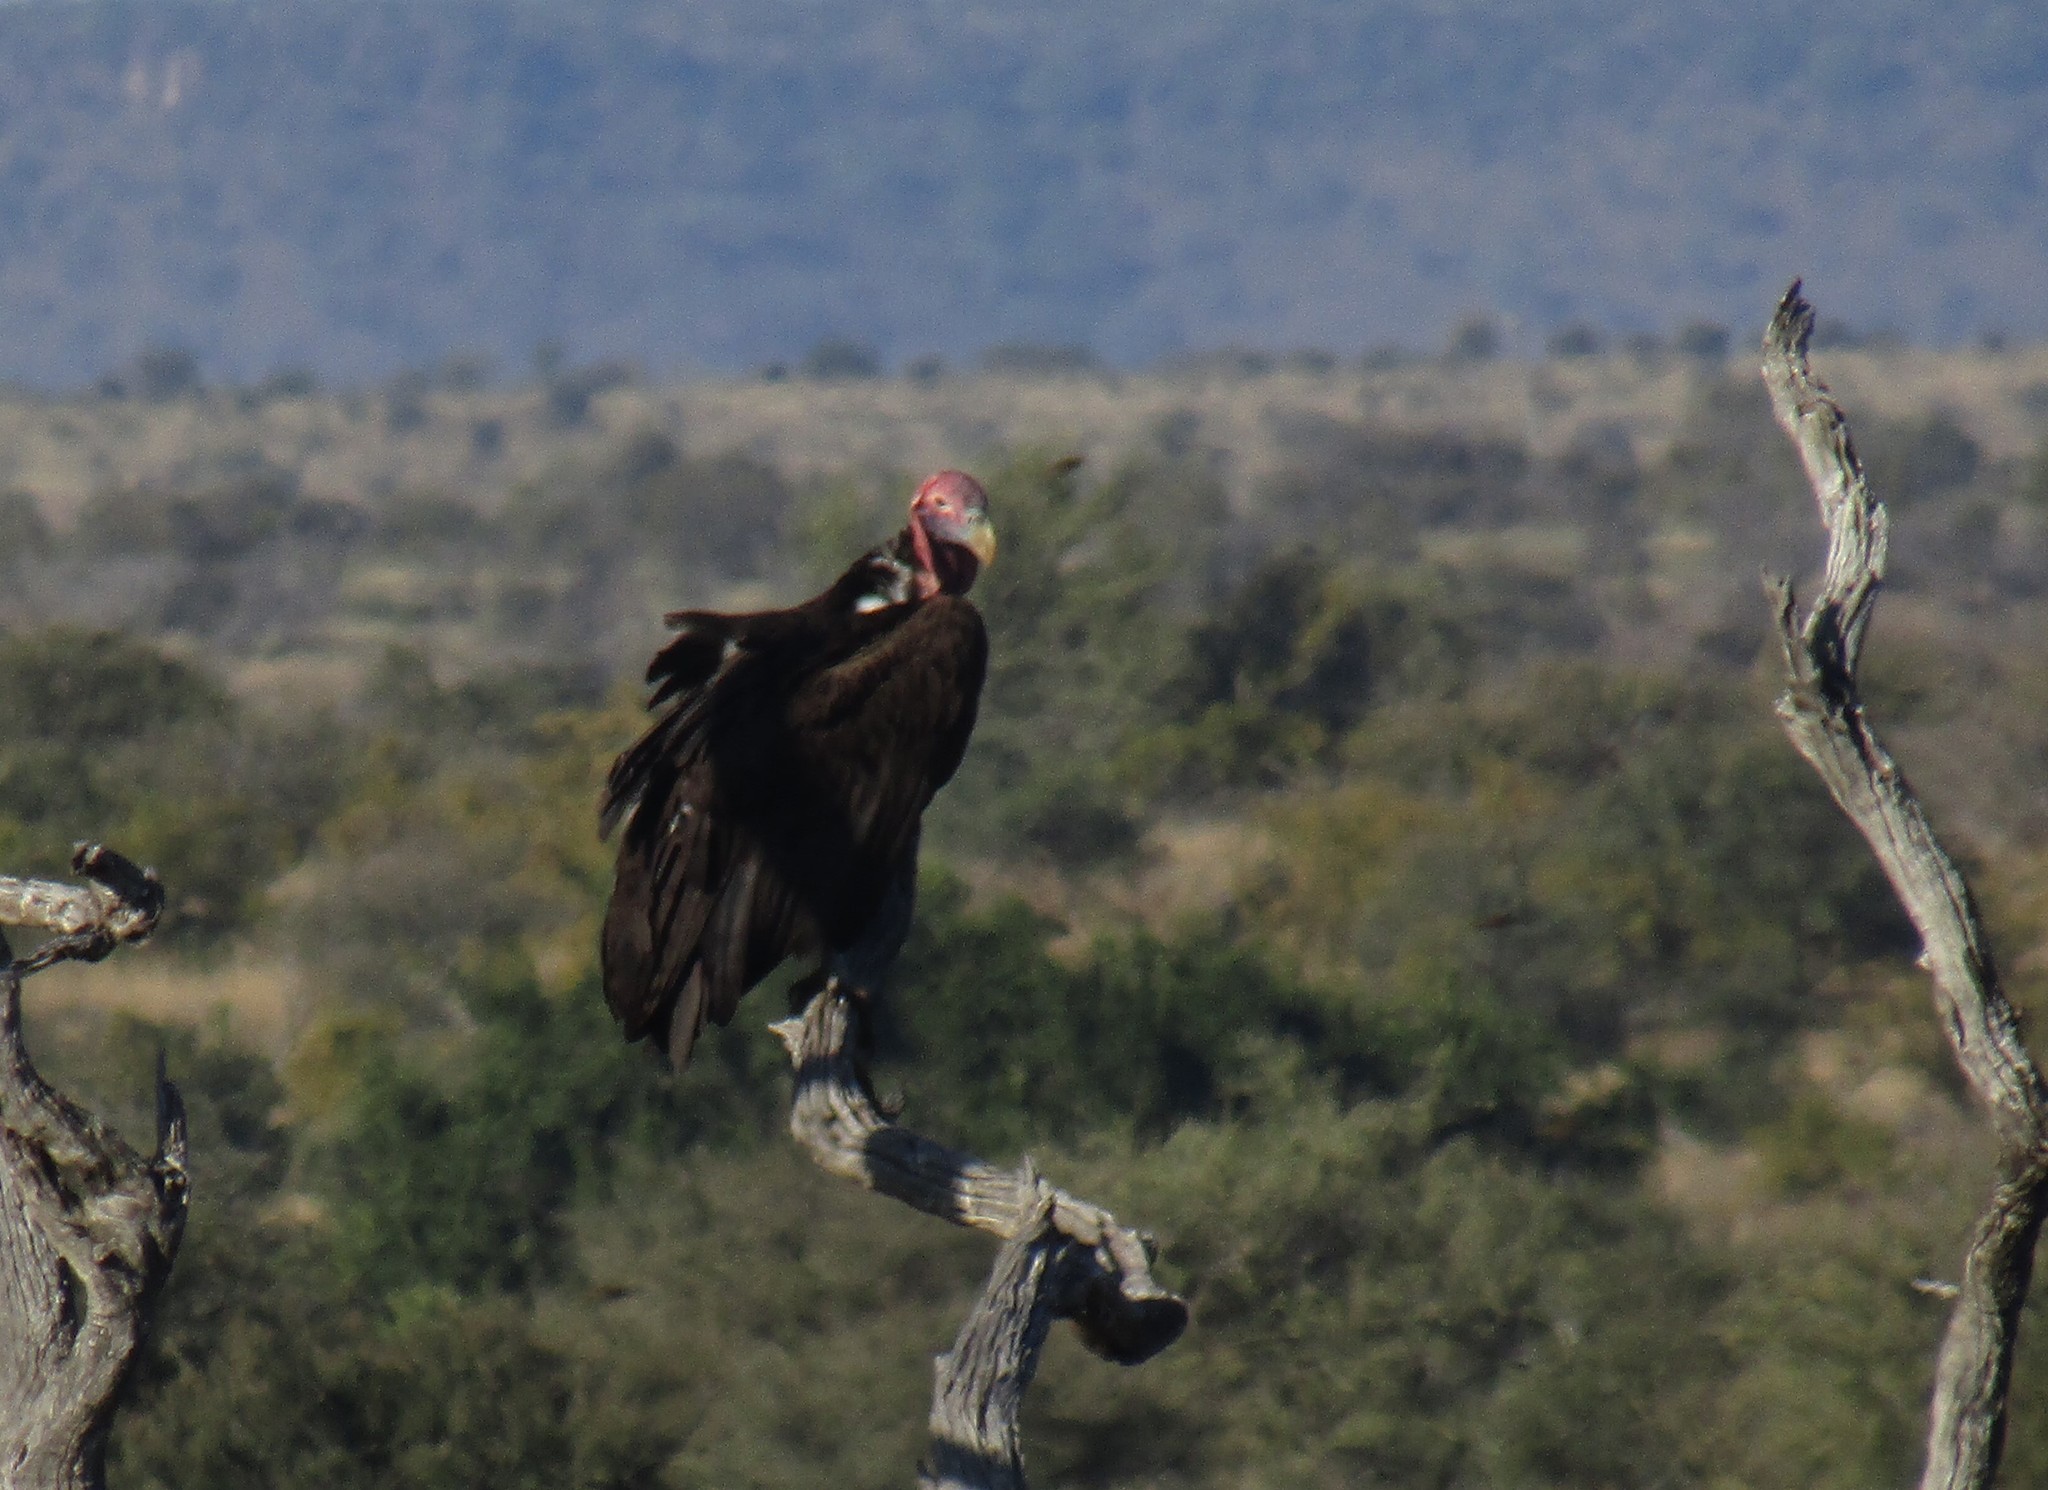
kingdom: Animalia
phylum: Chordata
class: Aves
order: Accipitriformes
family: Accipitridae
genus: Torgos
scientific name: Torgos tracheliotos
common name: Lappet-faced vulture
